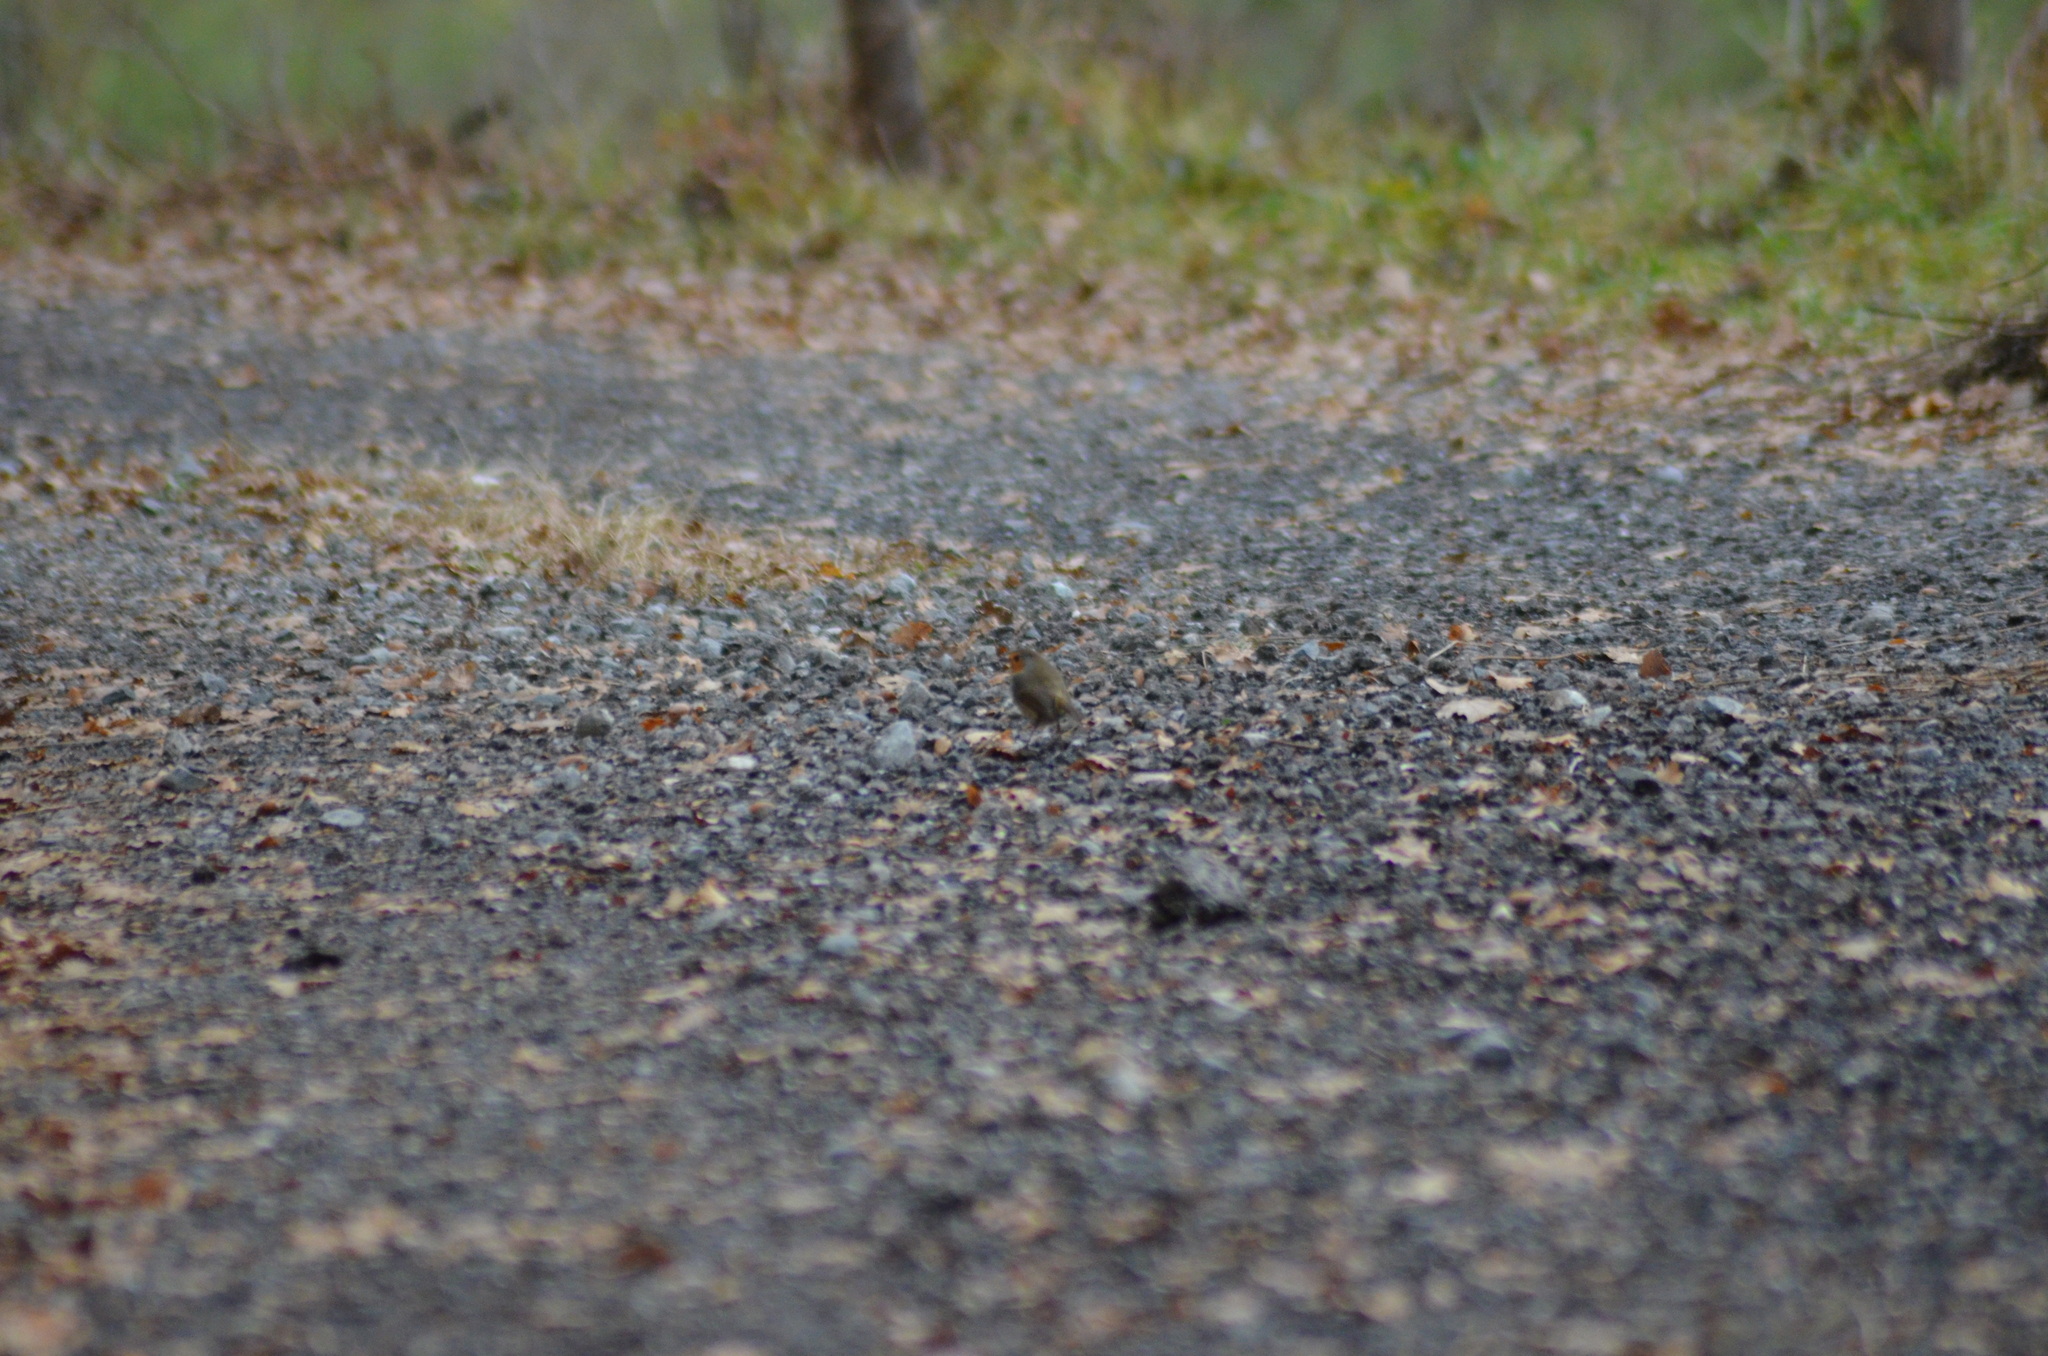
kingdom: Animalia
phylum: Chordata
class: Aves
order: Passeriformes
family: Muscicapidae
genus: Erithacus
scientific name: Erithacus rubecula
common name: European robin
